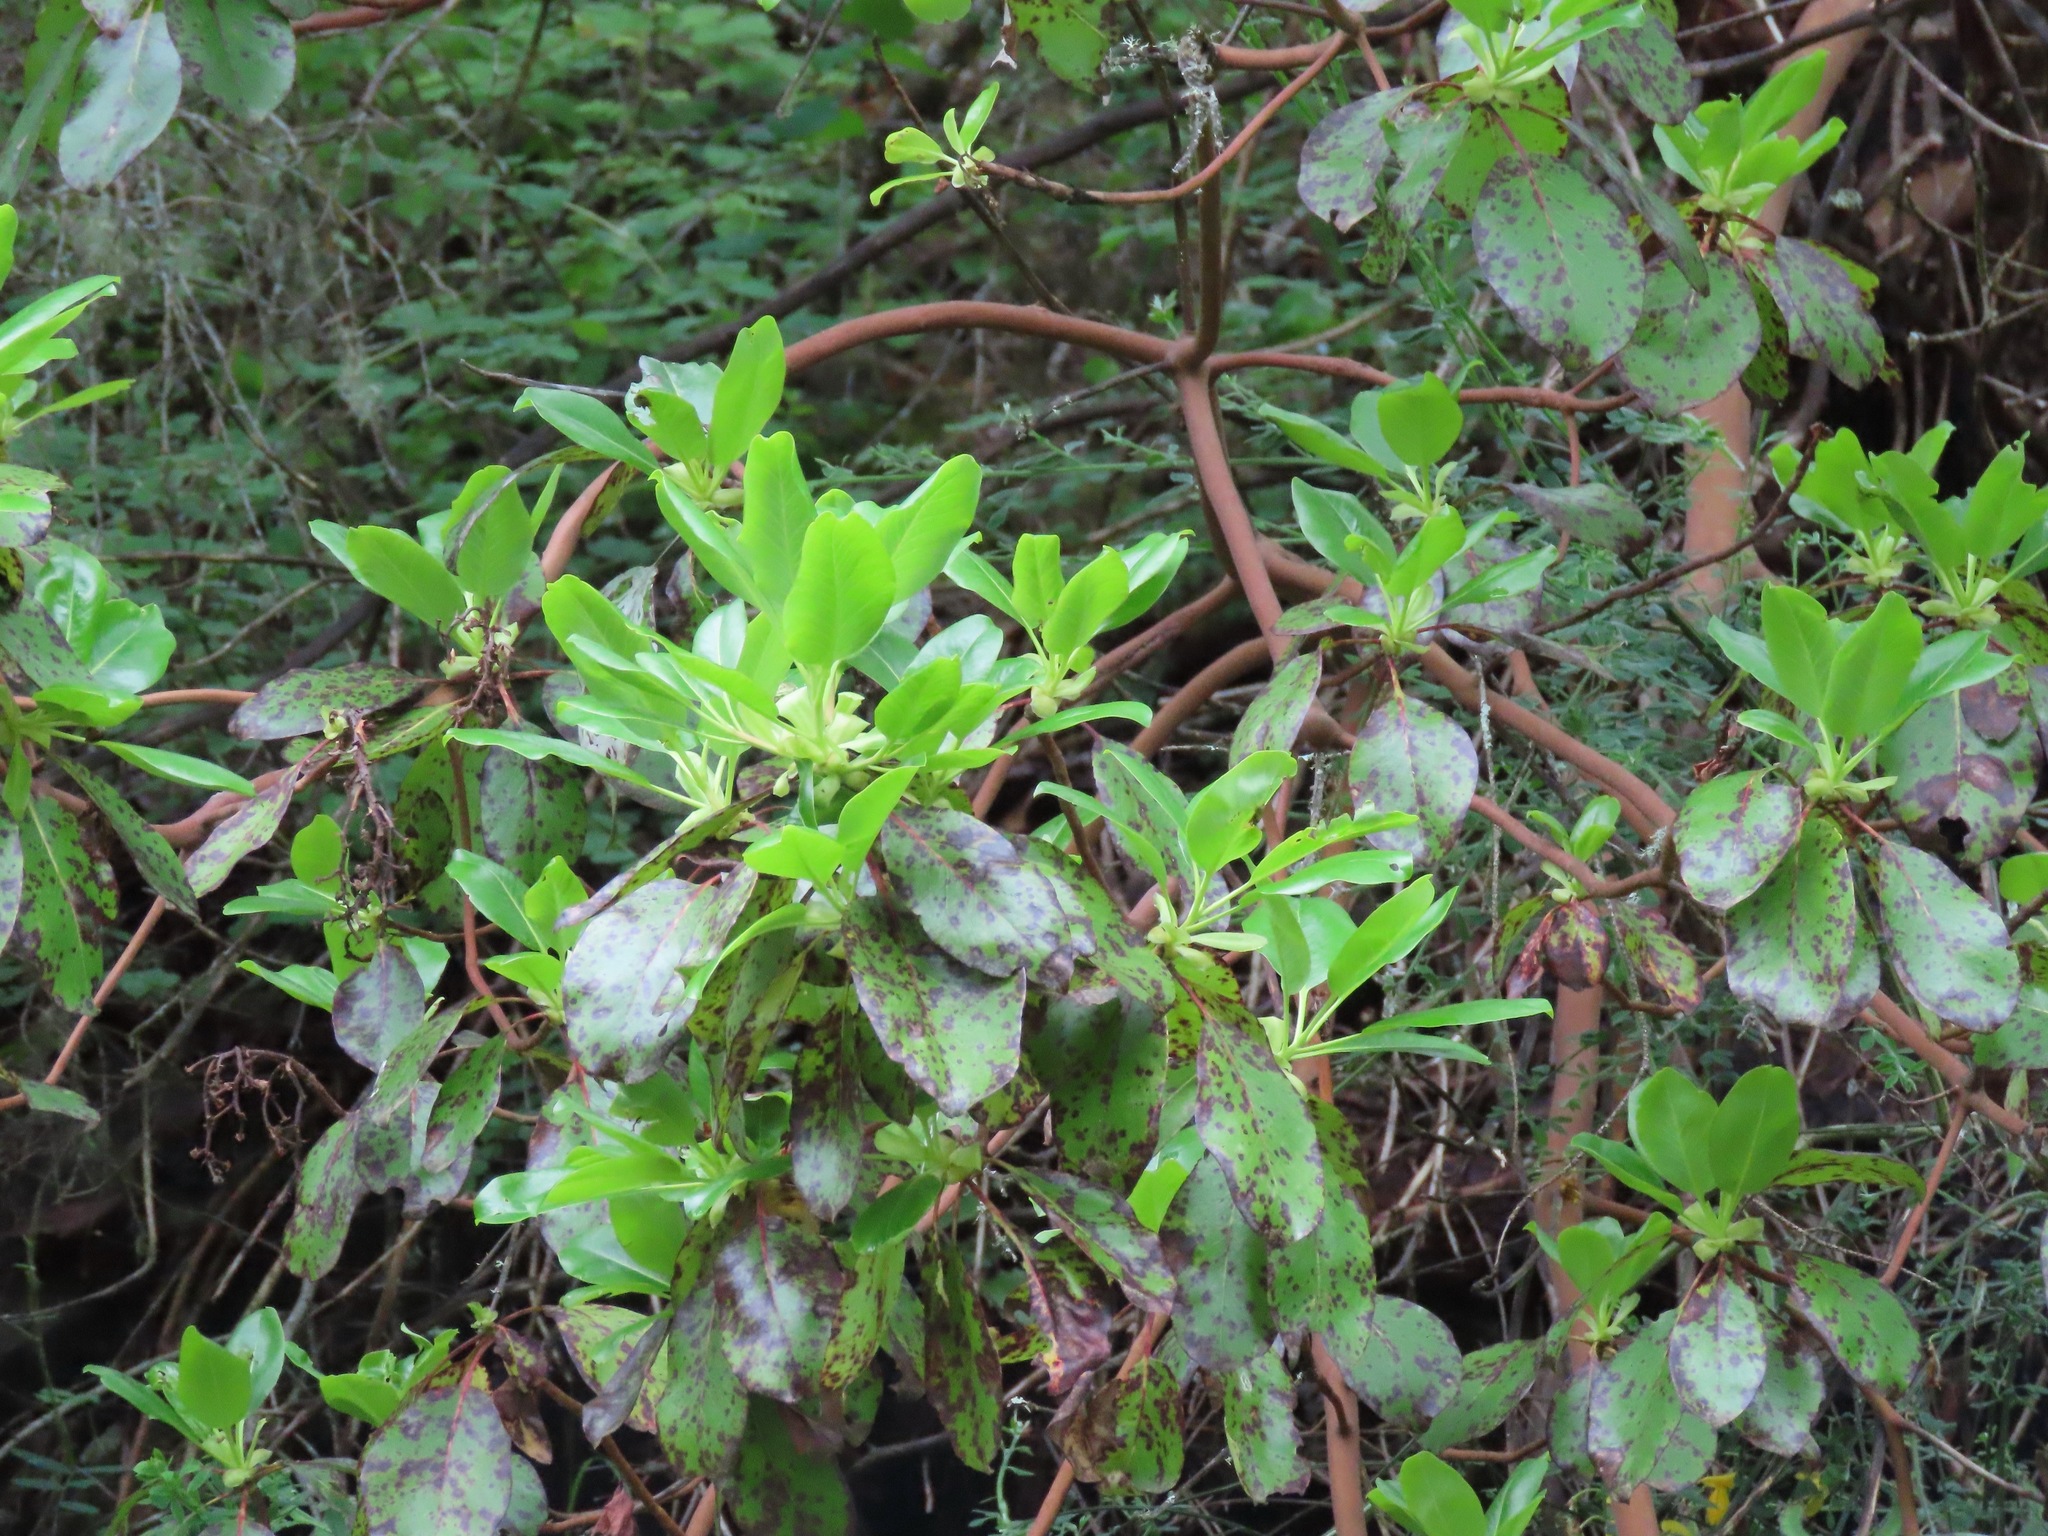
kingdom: Plantae
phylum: Tracheophyta
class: Magnoliopsida
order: Ericales
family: Ericaceae
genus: Arbutus
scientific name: Arbutus menziesii
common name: Pacific madrone
